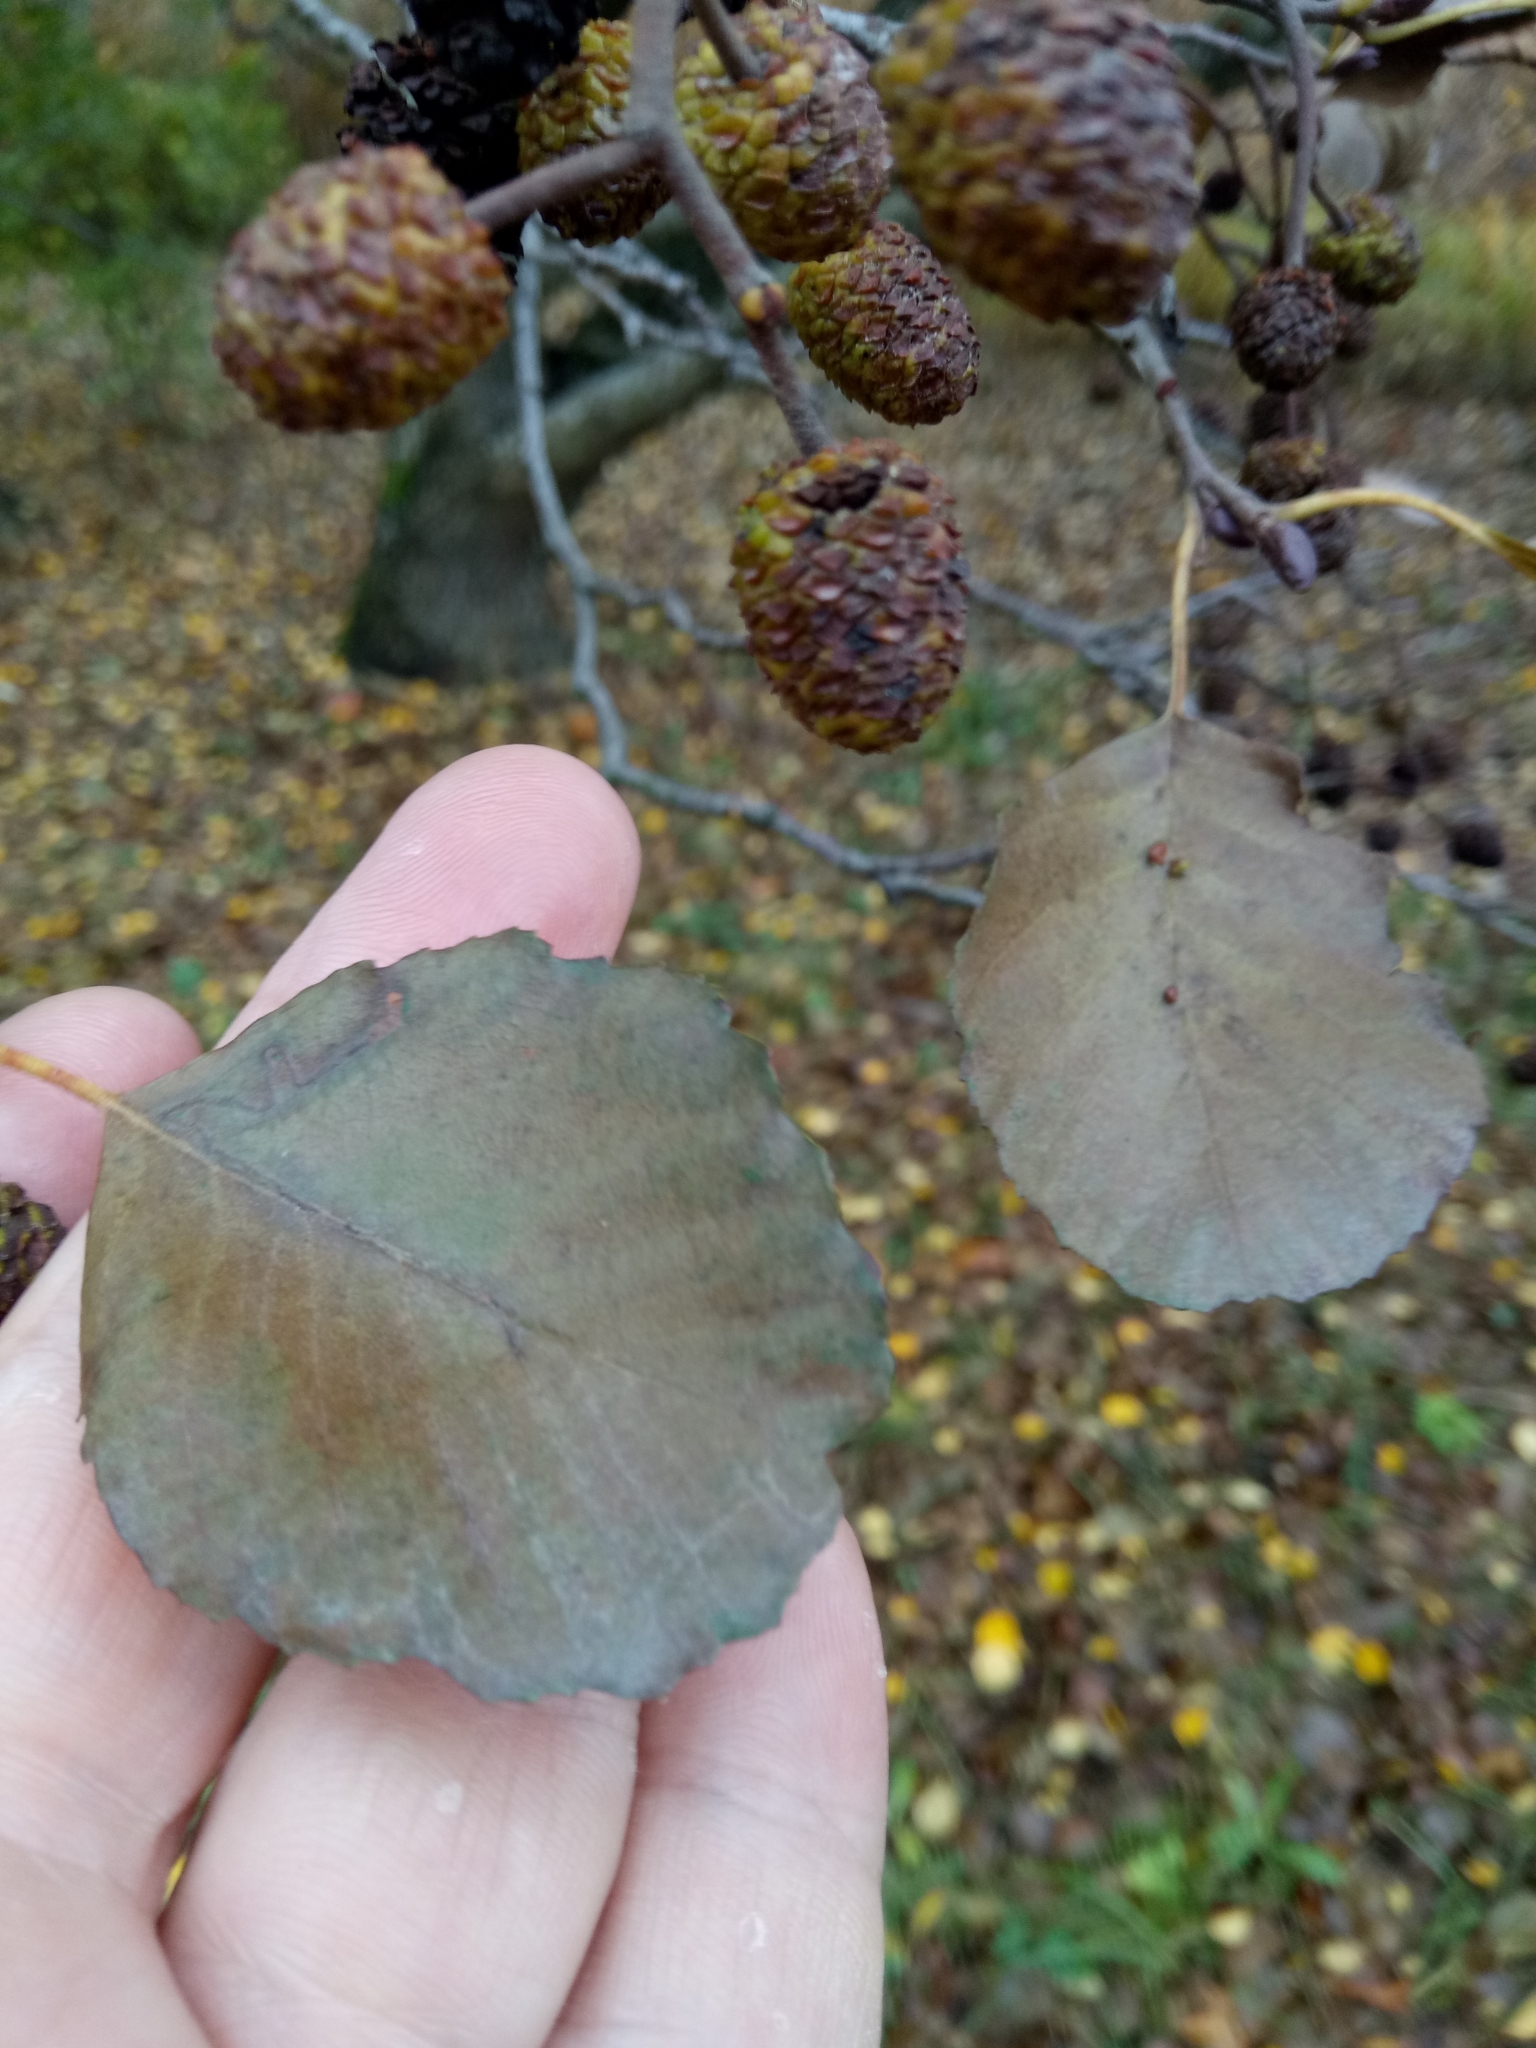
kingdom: Plantae
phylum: Tracheophyta
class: Magnoliopsida
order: Fagales
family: Betulaceae
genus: Alnus
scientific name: Alnus glutinosa
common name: Black alder
